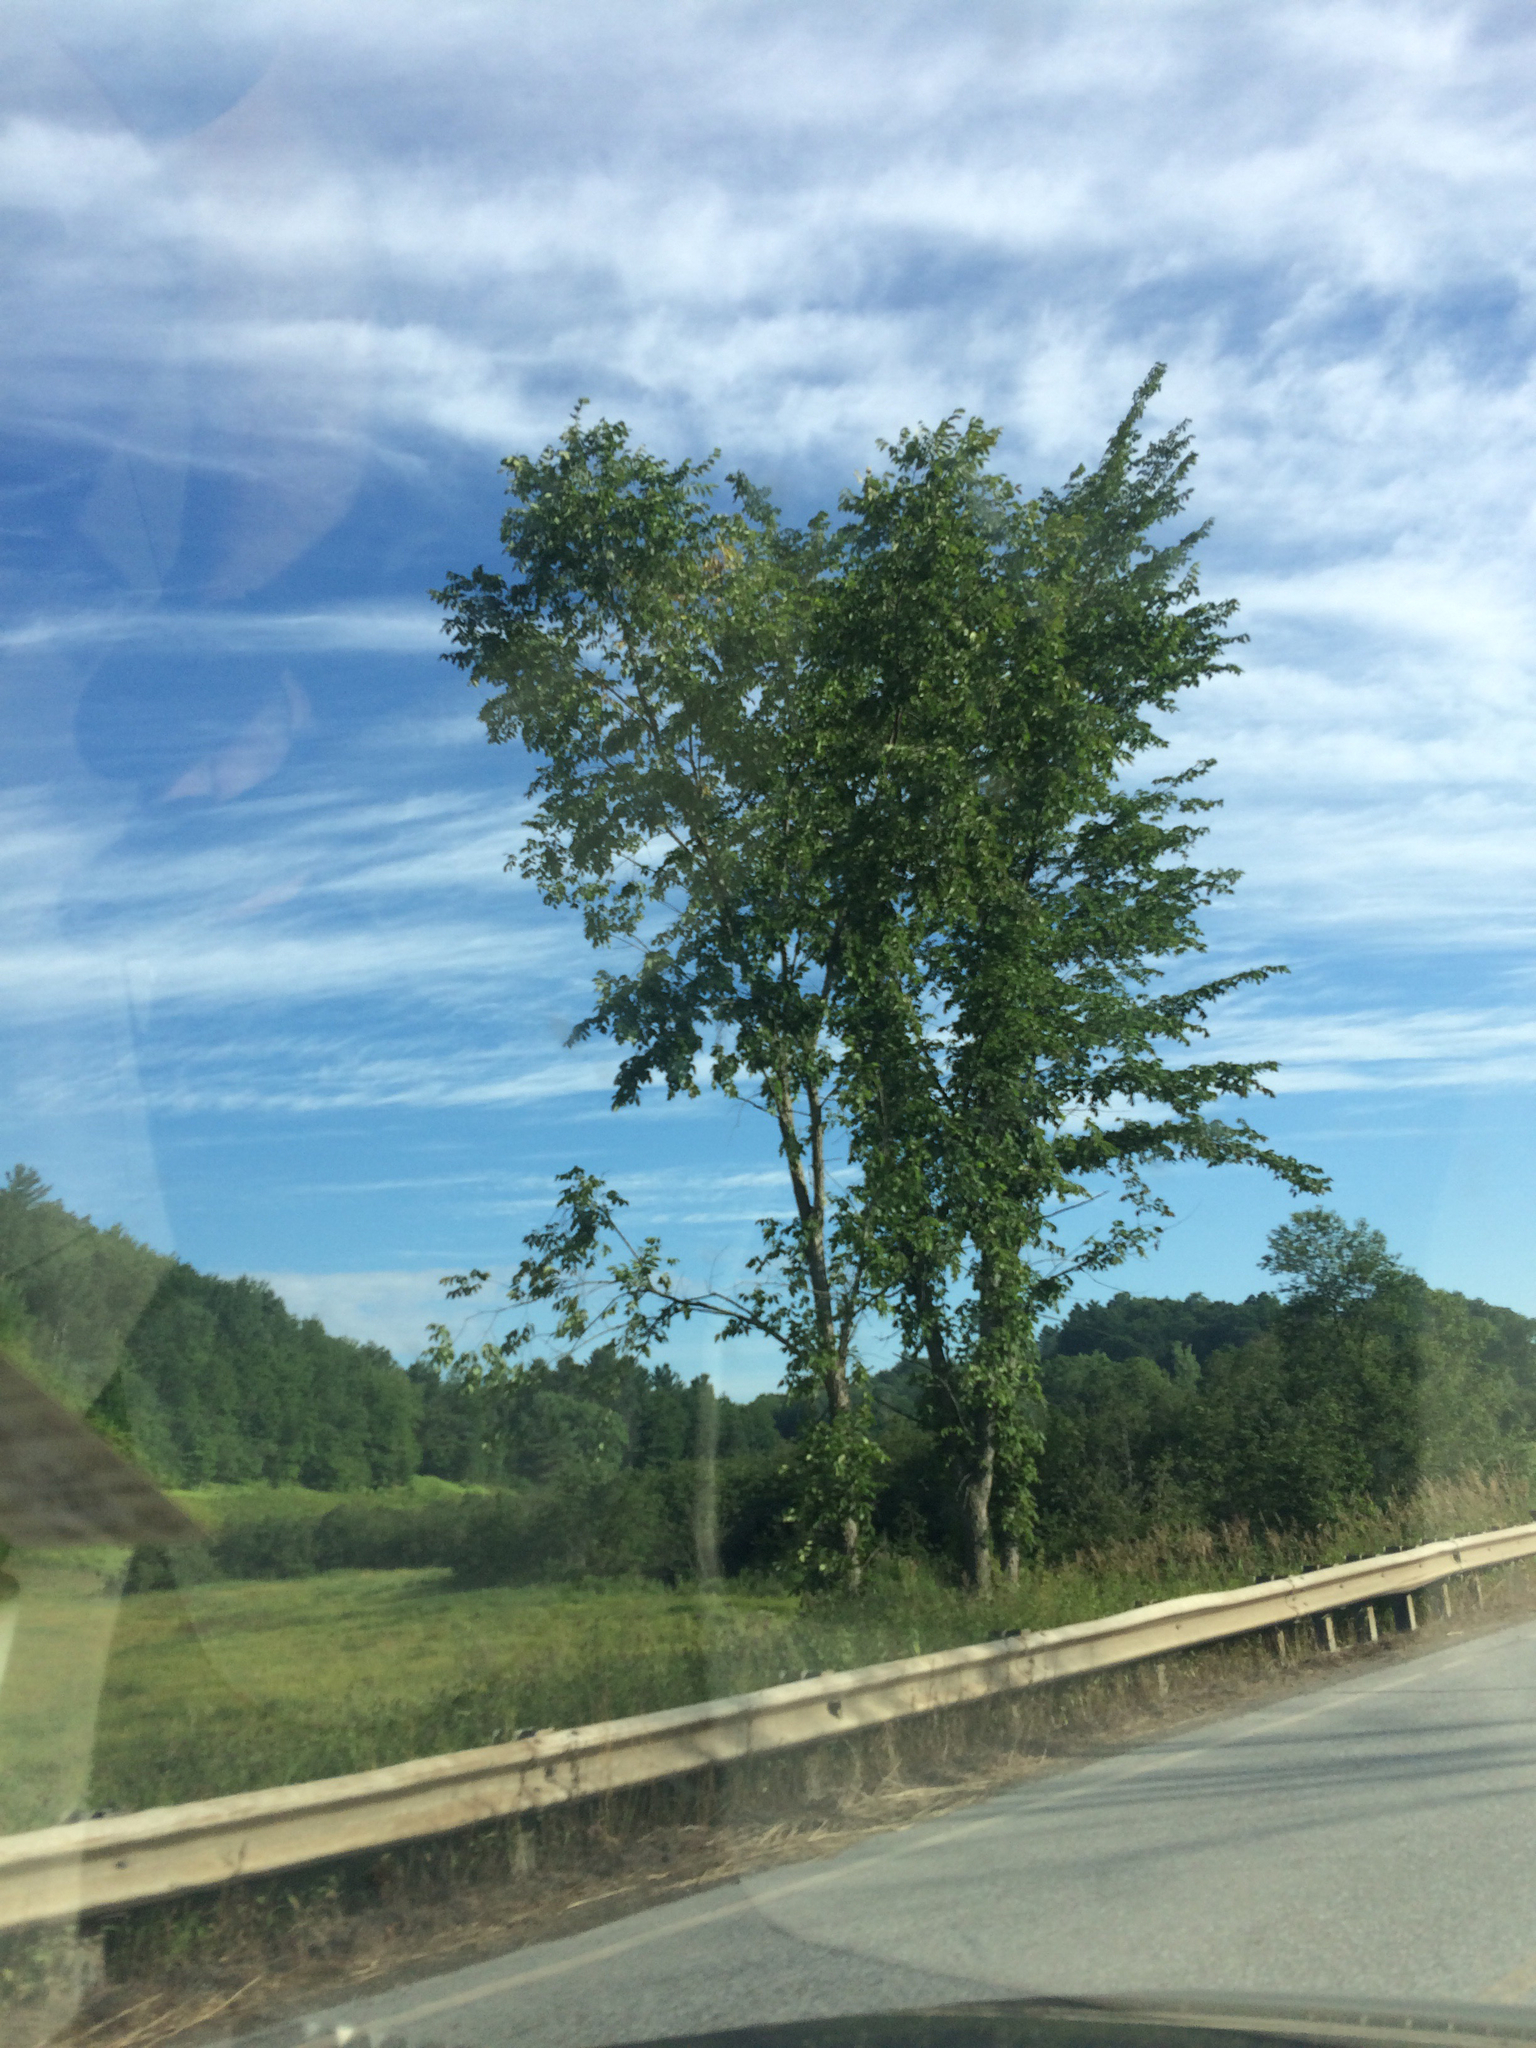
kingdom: Plantae
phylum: Tracheophyta
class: Magnoliopsida
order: Rosales
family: Ulmaceae
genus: Ulmus
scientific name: Ulmus americana
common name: American elm
